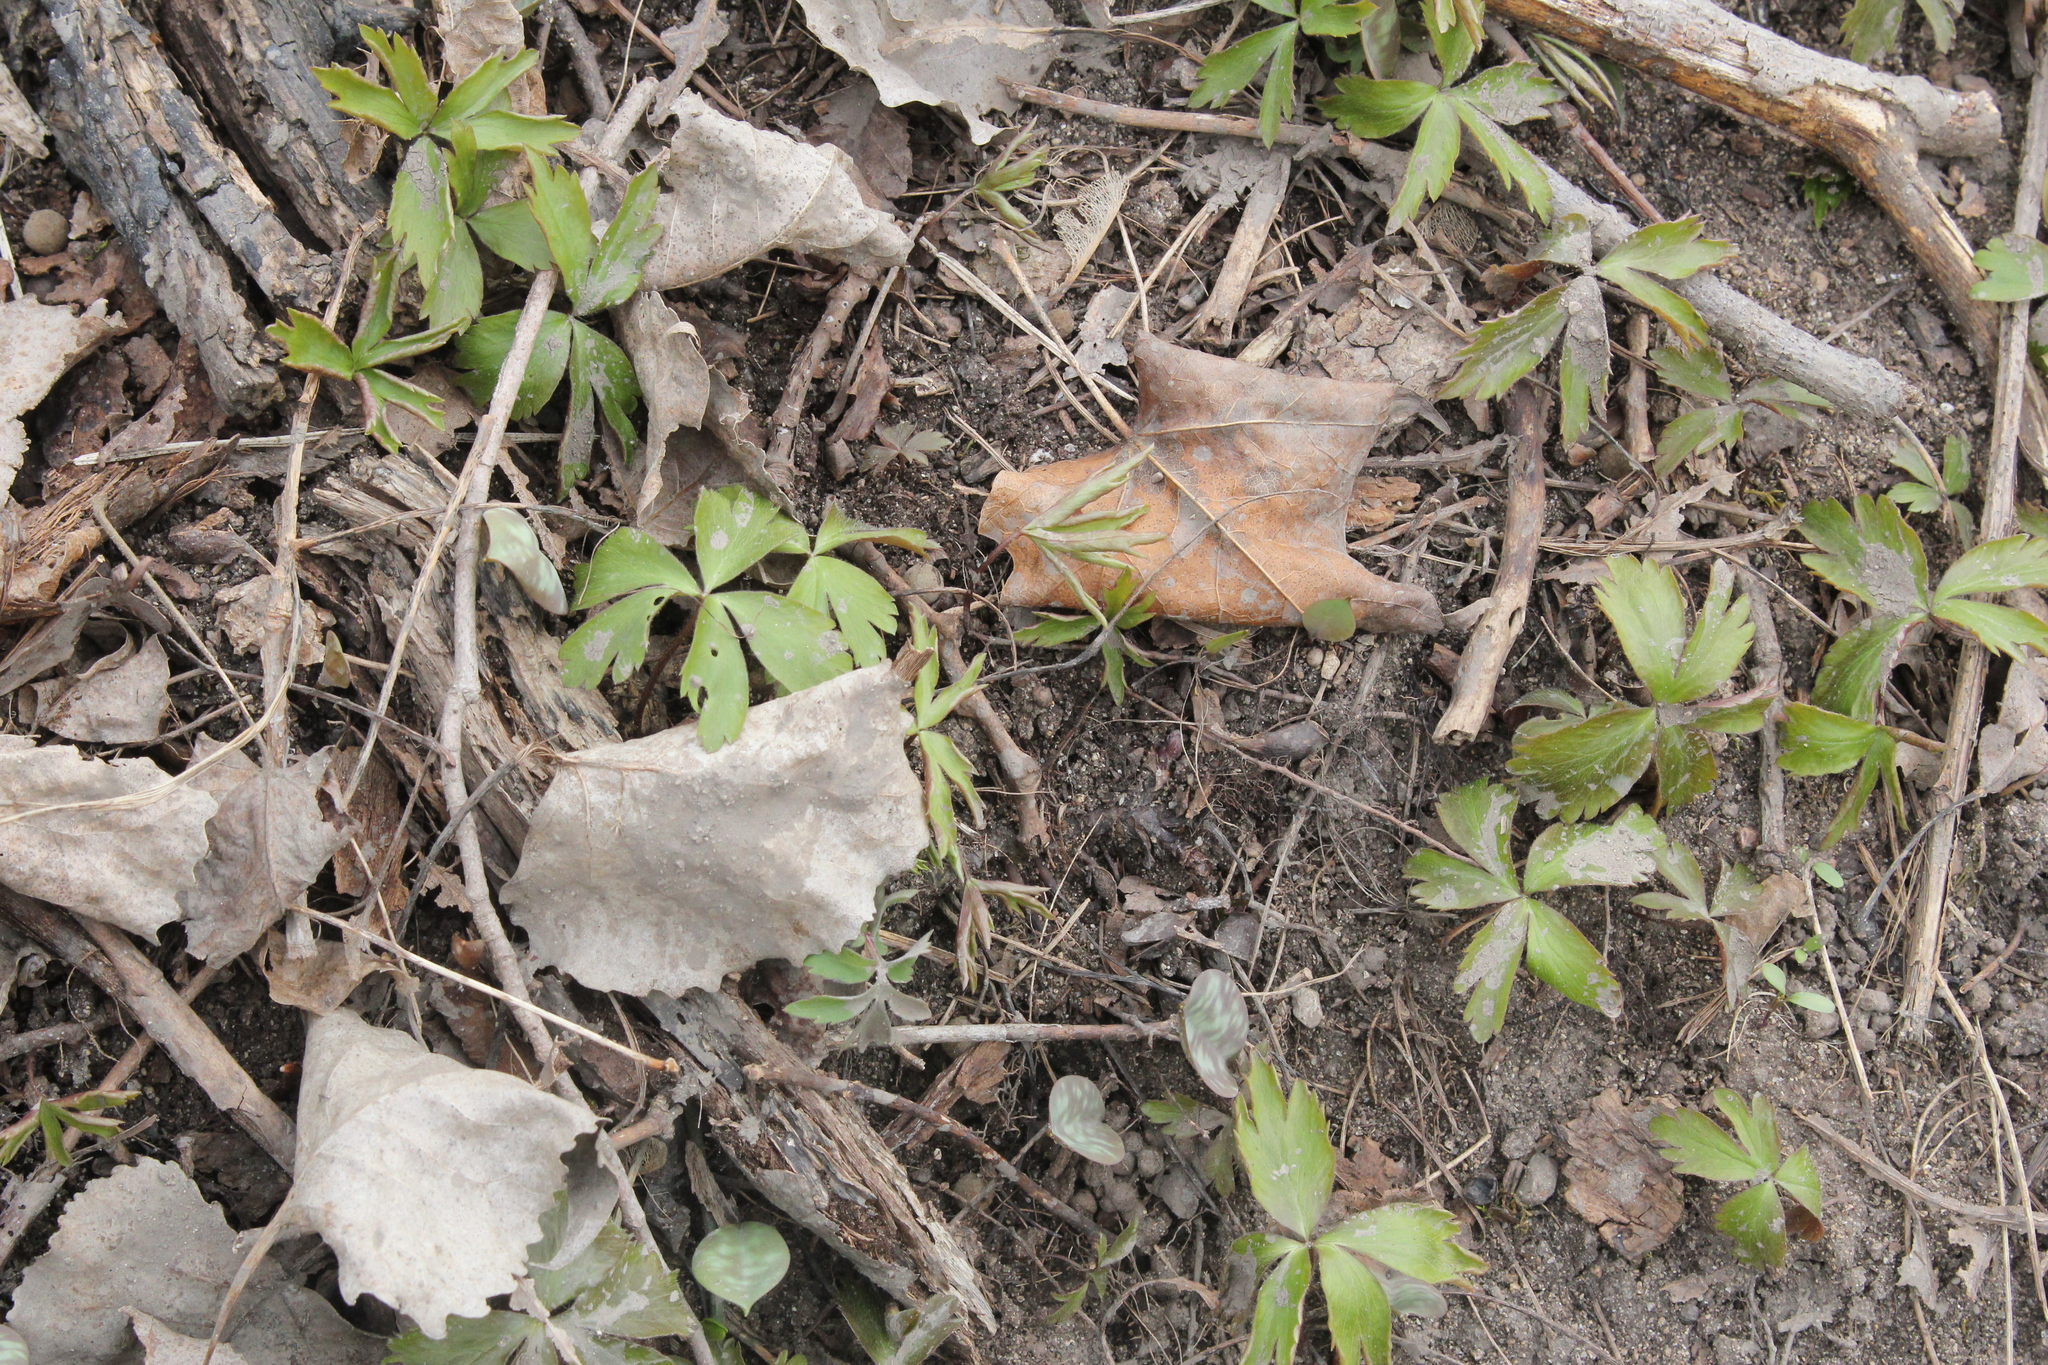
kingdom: Plantae
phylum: Tracheophyta
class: Magnoliopsida
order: Ranunculales
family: Ranunculaceae
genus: Anemone
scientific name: Anemone quinquefolia
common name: Wood anemone
